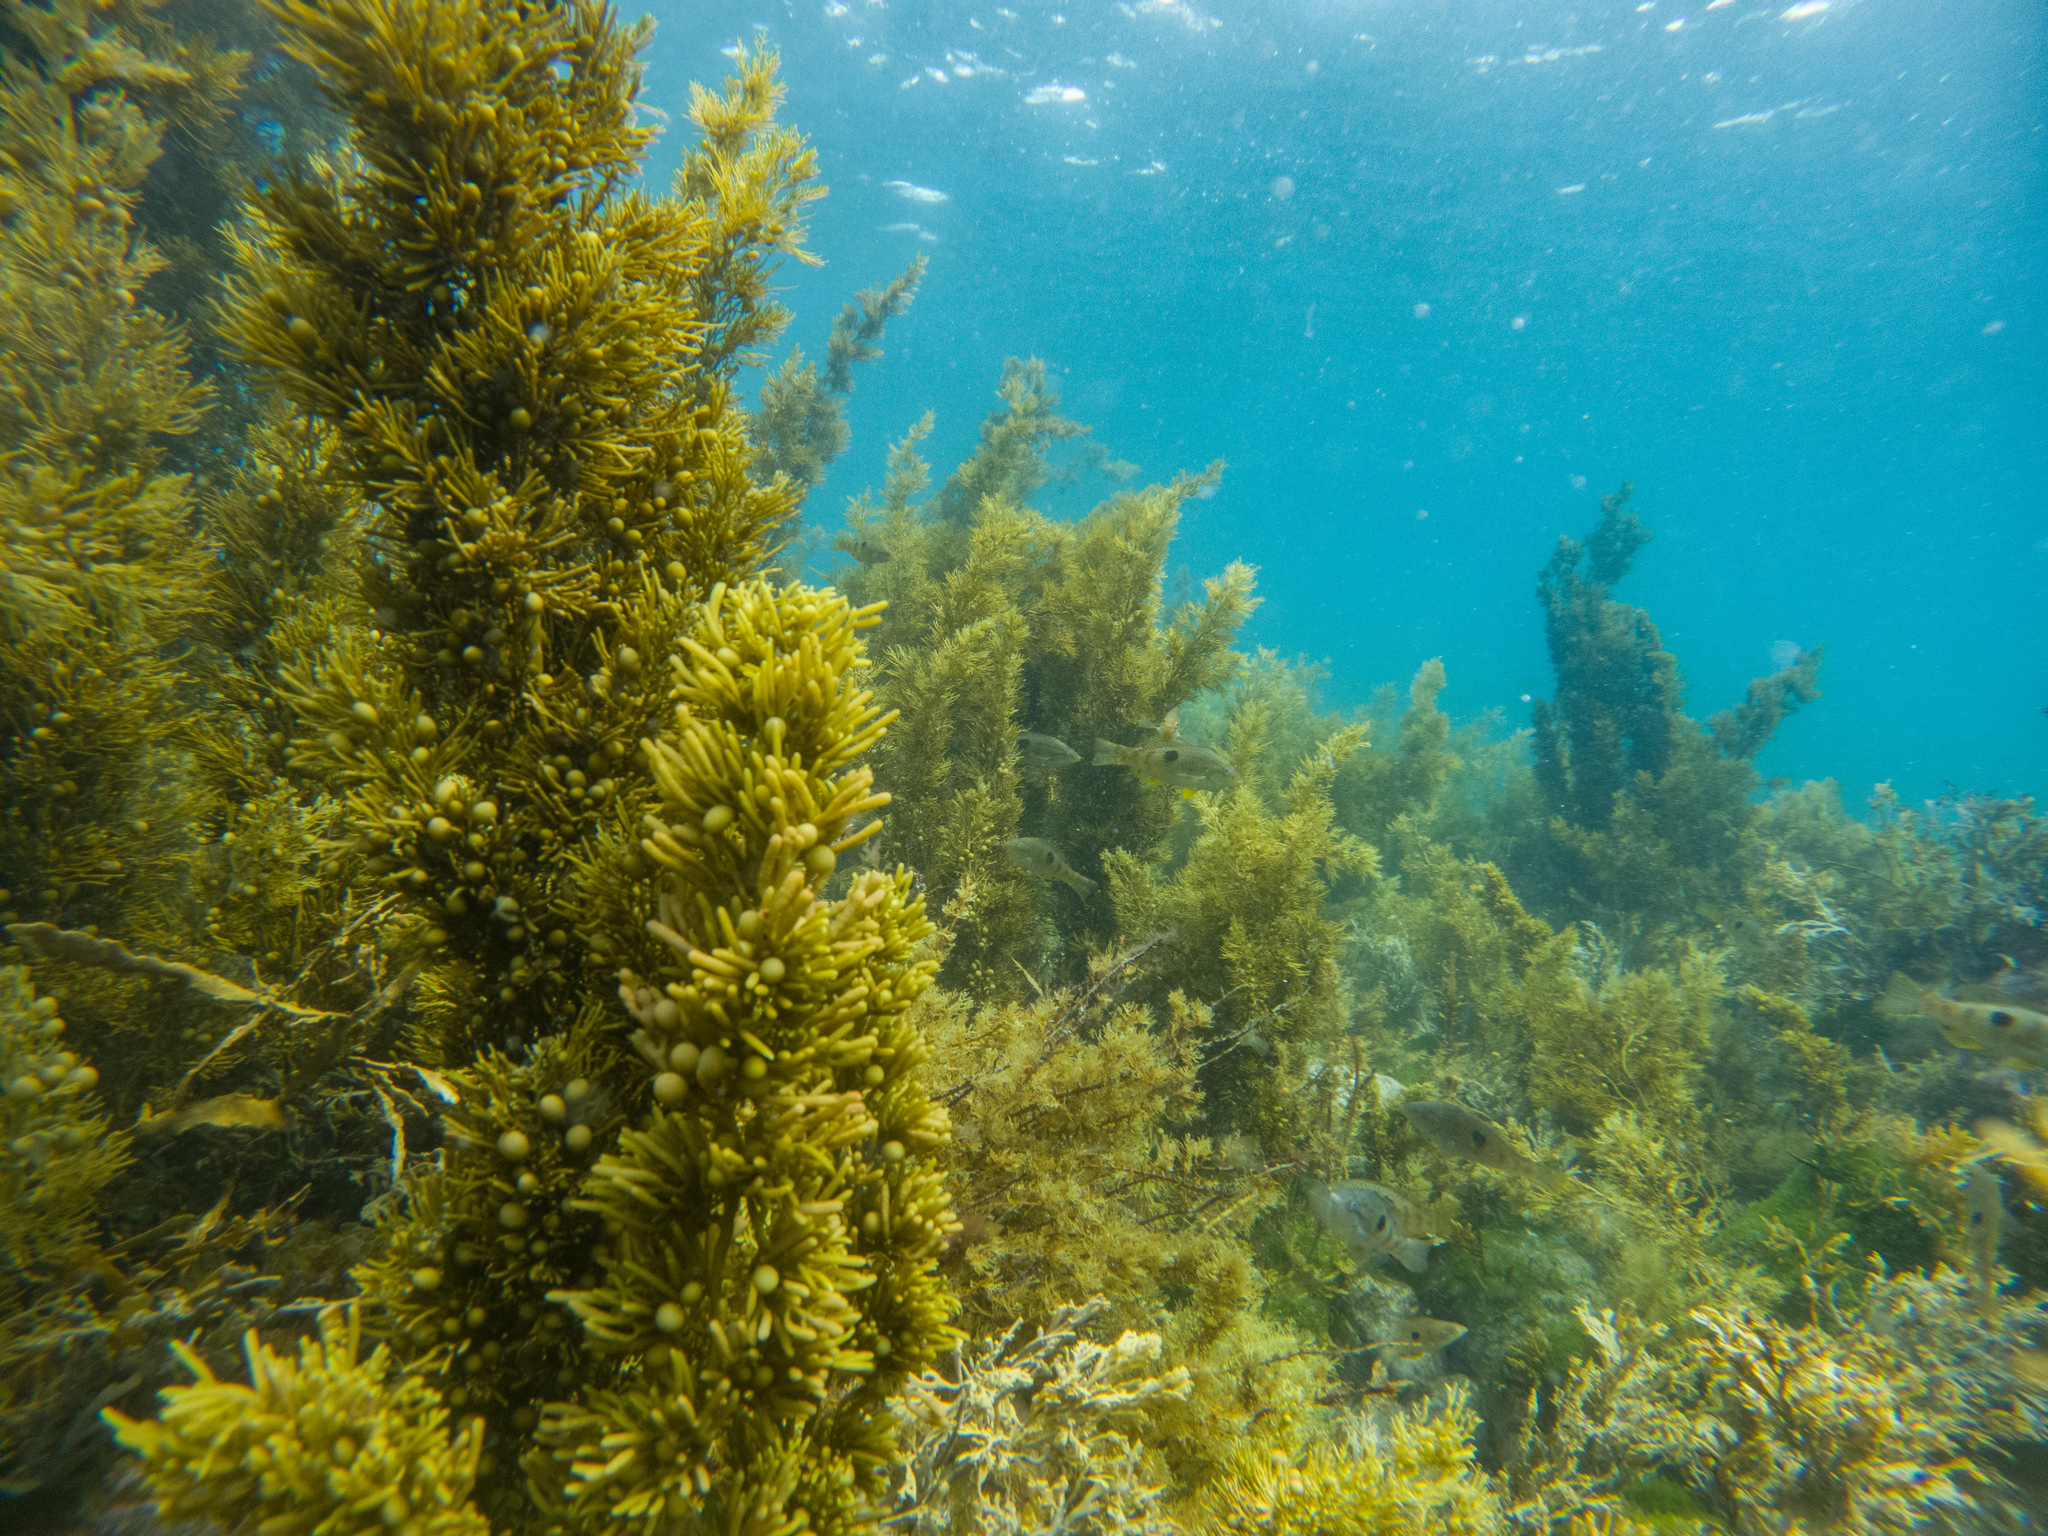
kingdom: Chromista
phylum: Ochrophyta
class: Phaeophyceae
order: Fucales
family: Sargassaceae
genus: Cystophora
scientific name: Cystophora retroflexa
